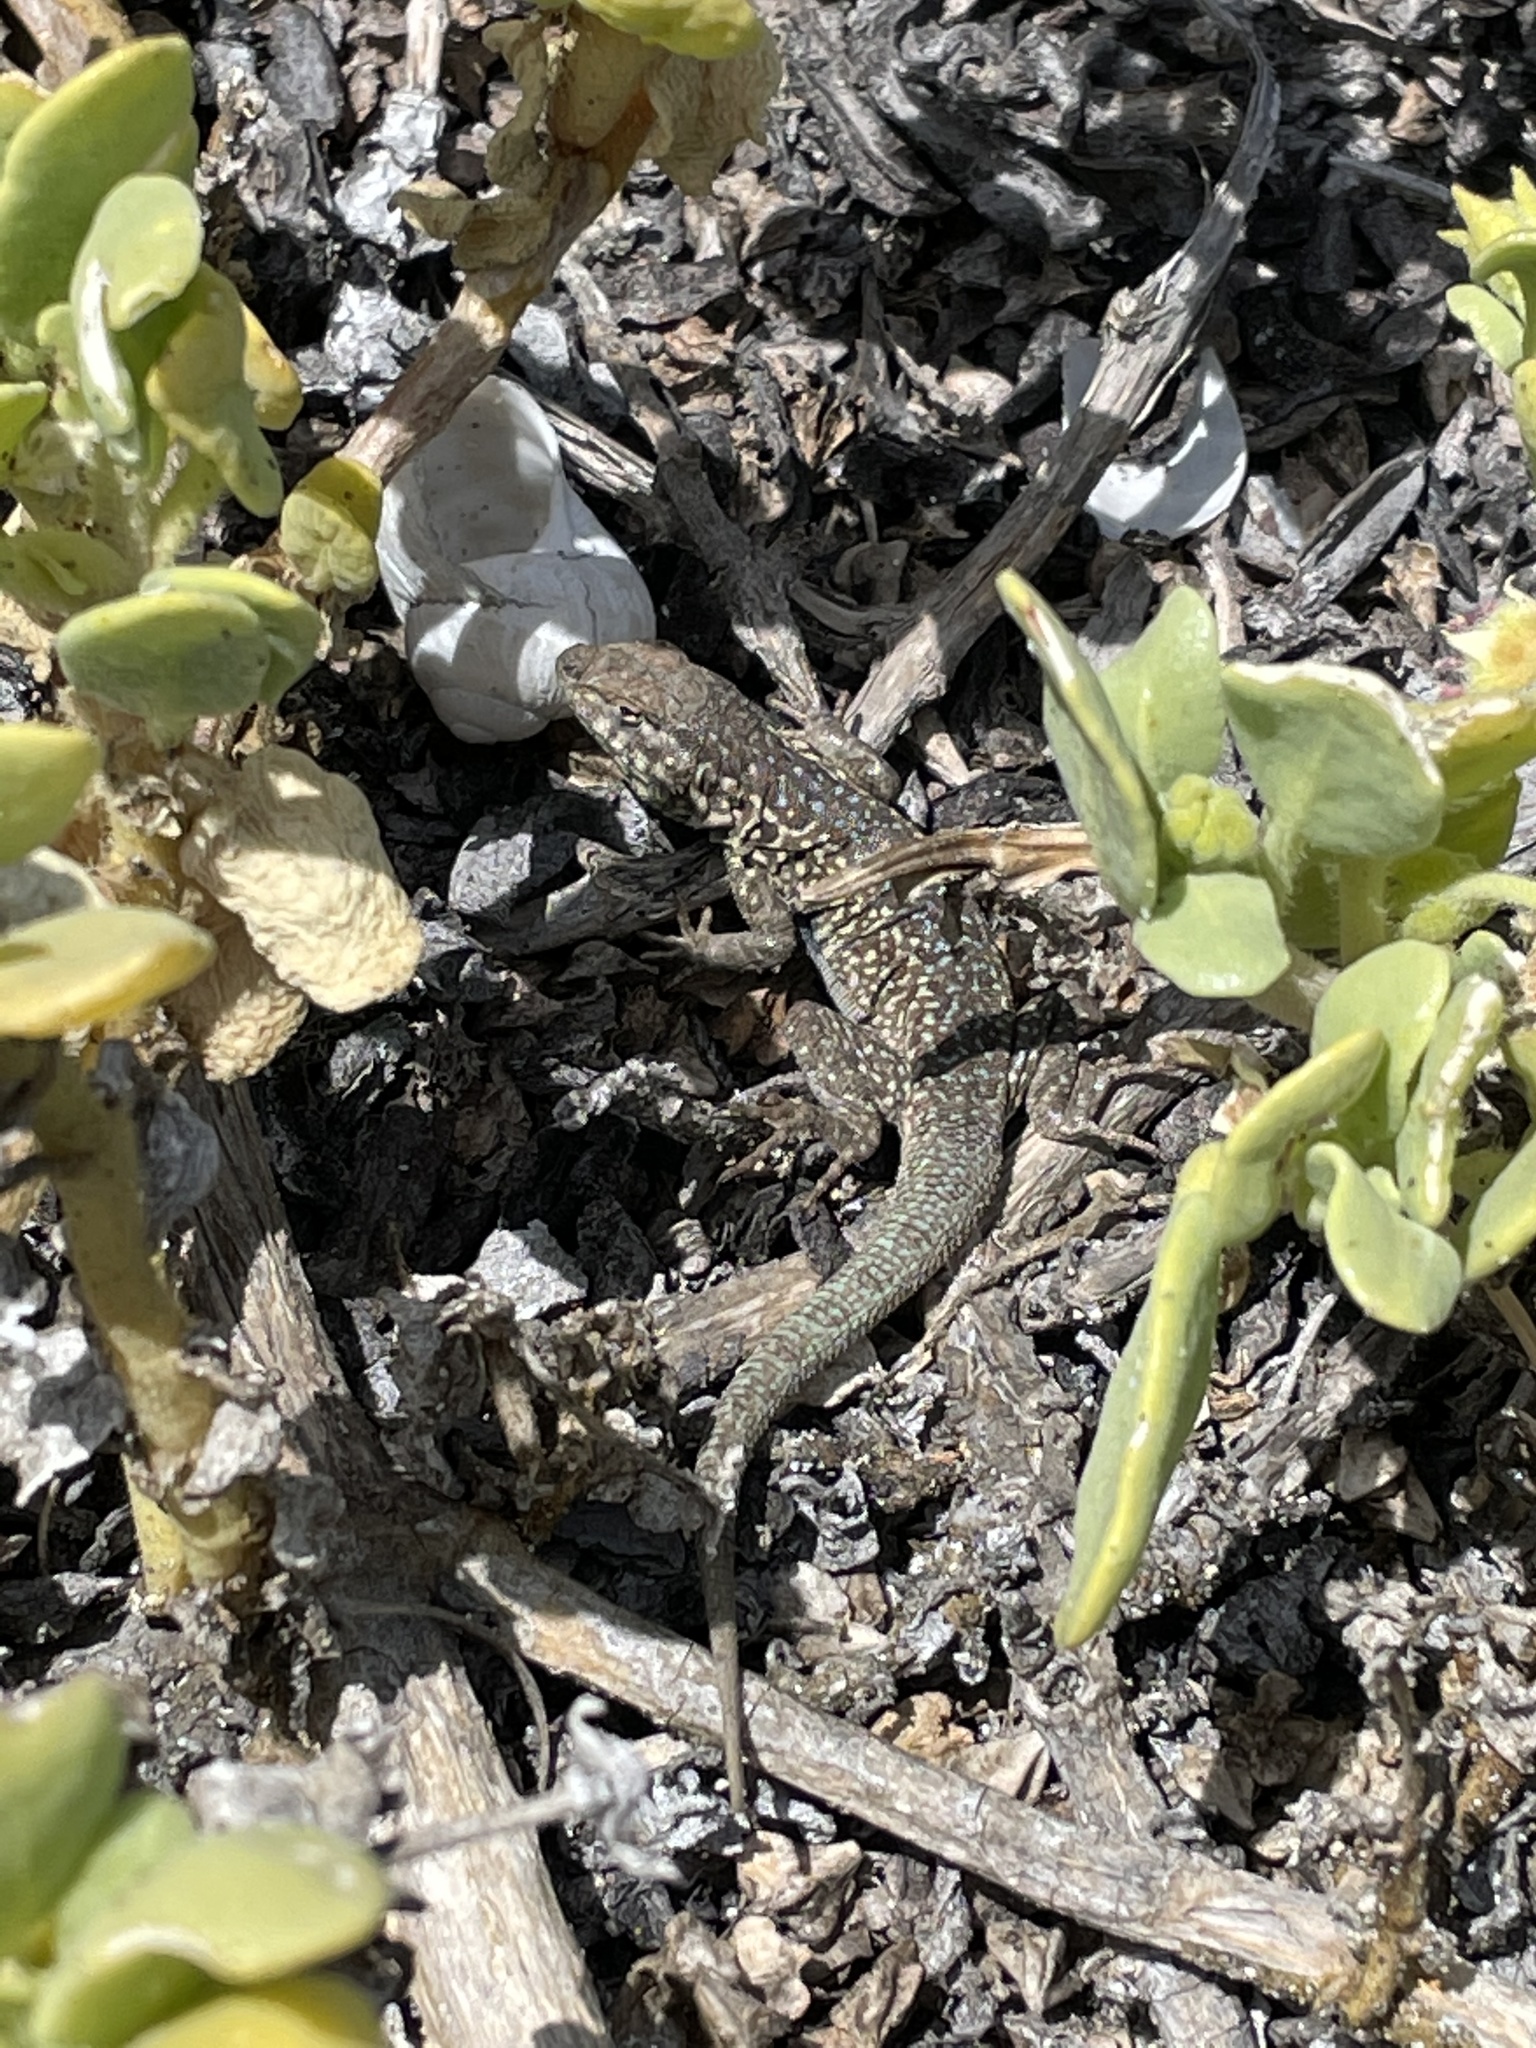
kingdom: Animalia
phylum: Chordata
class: Squamata
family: Phrynosomatidae
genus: Uta
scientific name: Uta stansburiana
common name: Side-blotched lizard
